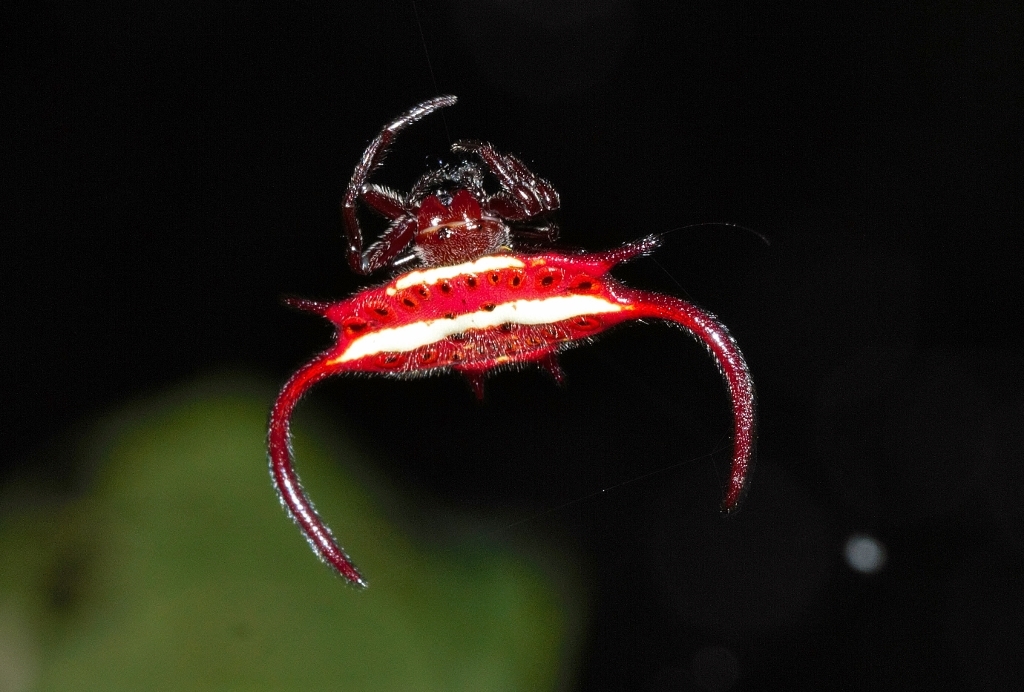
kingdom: Animalia
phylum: Arthropoda
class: Arachnida
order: Araneae
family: Araneidae
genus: Gasteracantha
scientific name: Gasteracantha falcicornis
